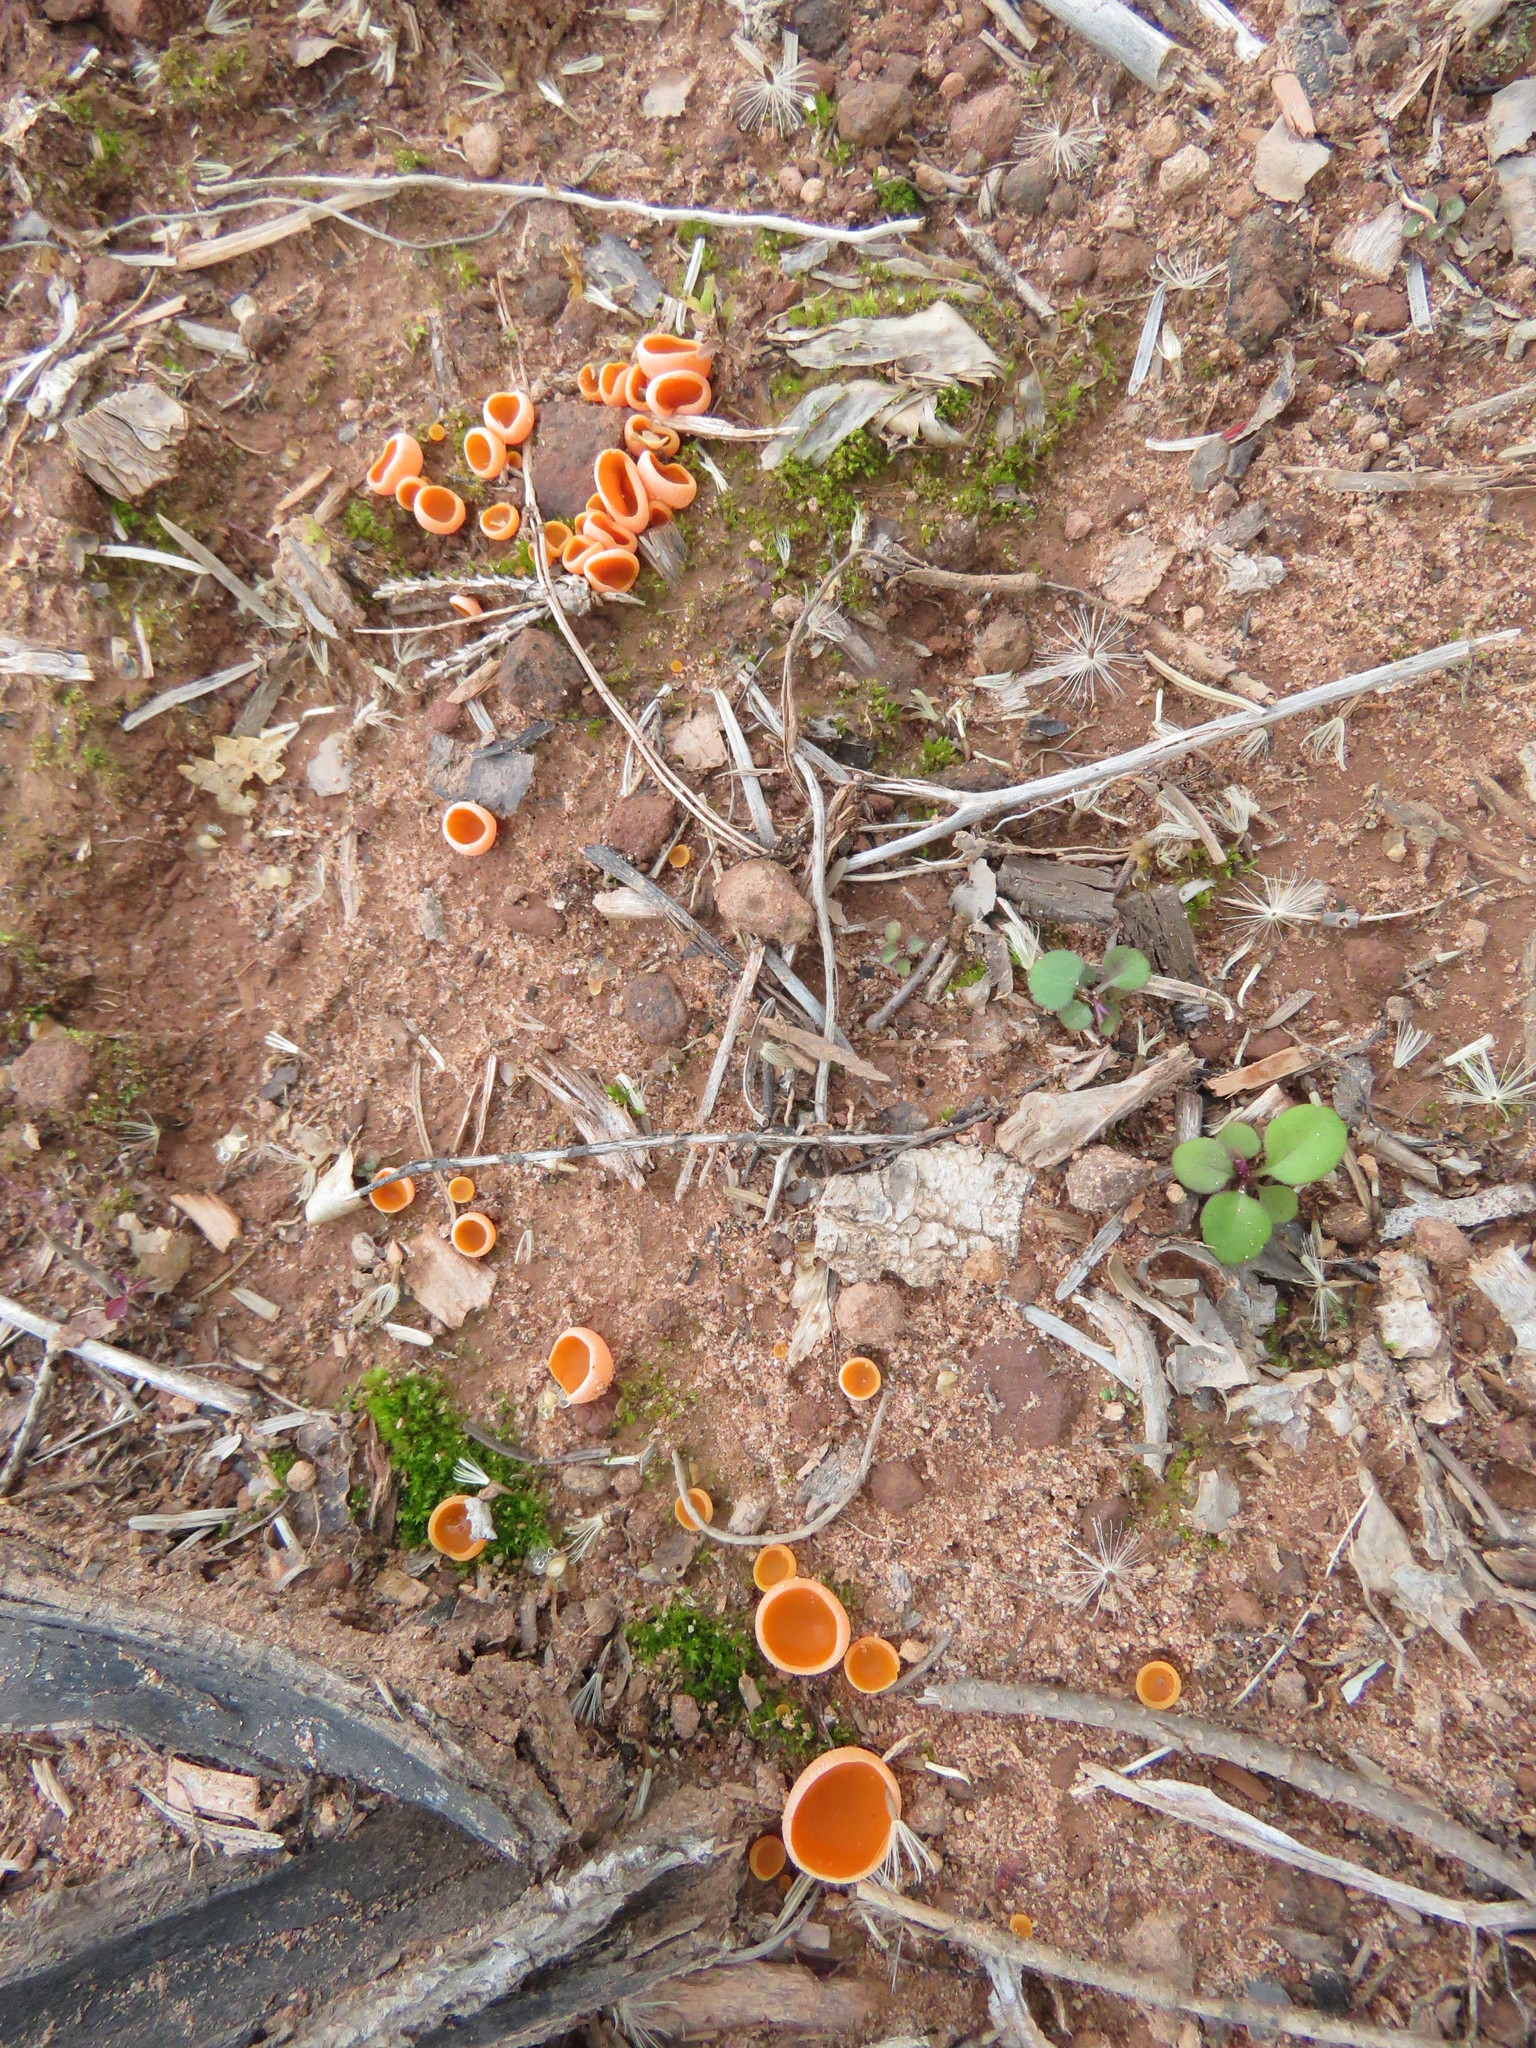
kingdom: Fungi
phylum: Ascomycota
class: Pezizomycetes
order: Pezizales
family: Pyronemataceae
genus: Aleuria
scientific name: Aleuria aurantia
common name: Orange peel fungus
